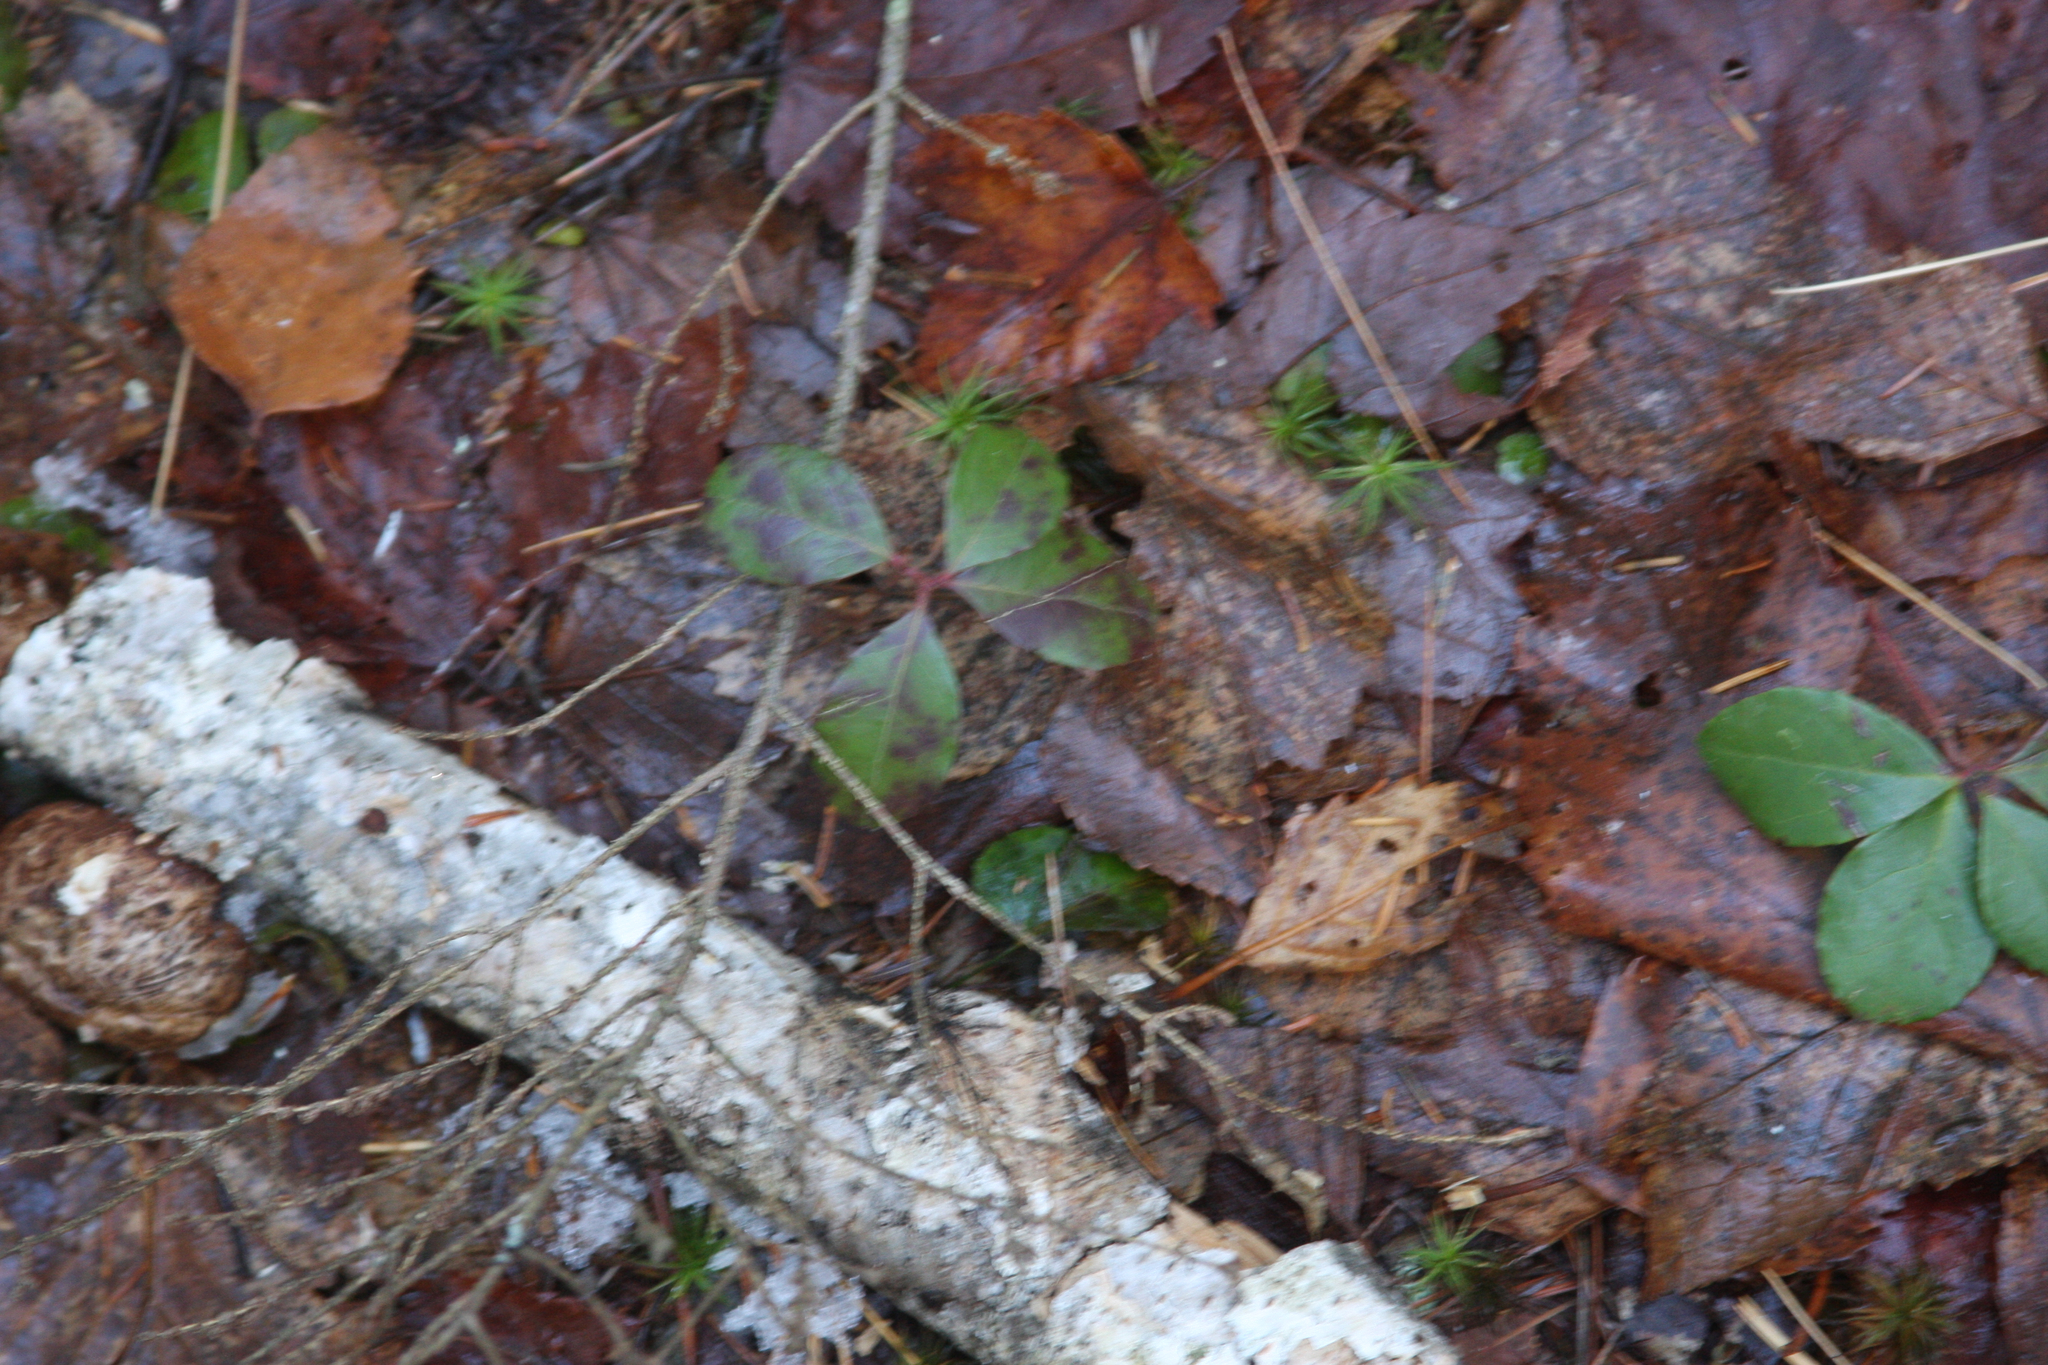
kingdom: Plantae
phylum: Tracheophyta
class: Magnoliopsida
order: Ericales
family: Ericaceae
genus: Gaultheria
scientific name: Gaultheria procumbens
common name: Checkerberry
